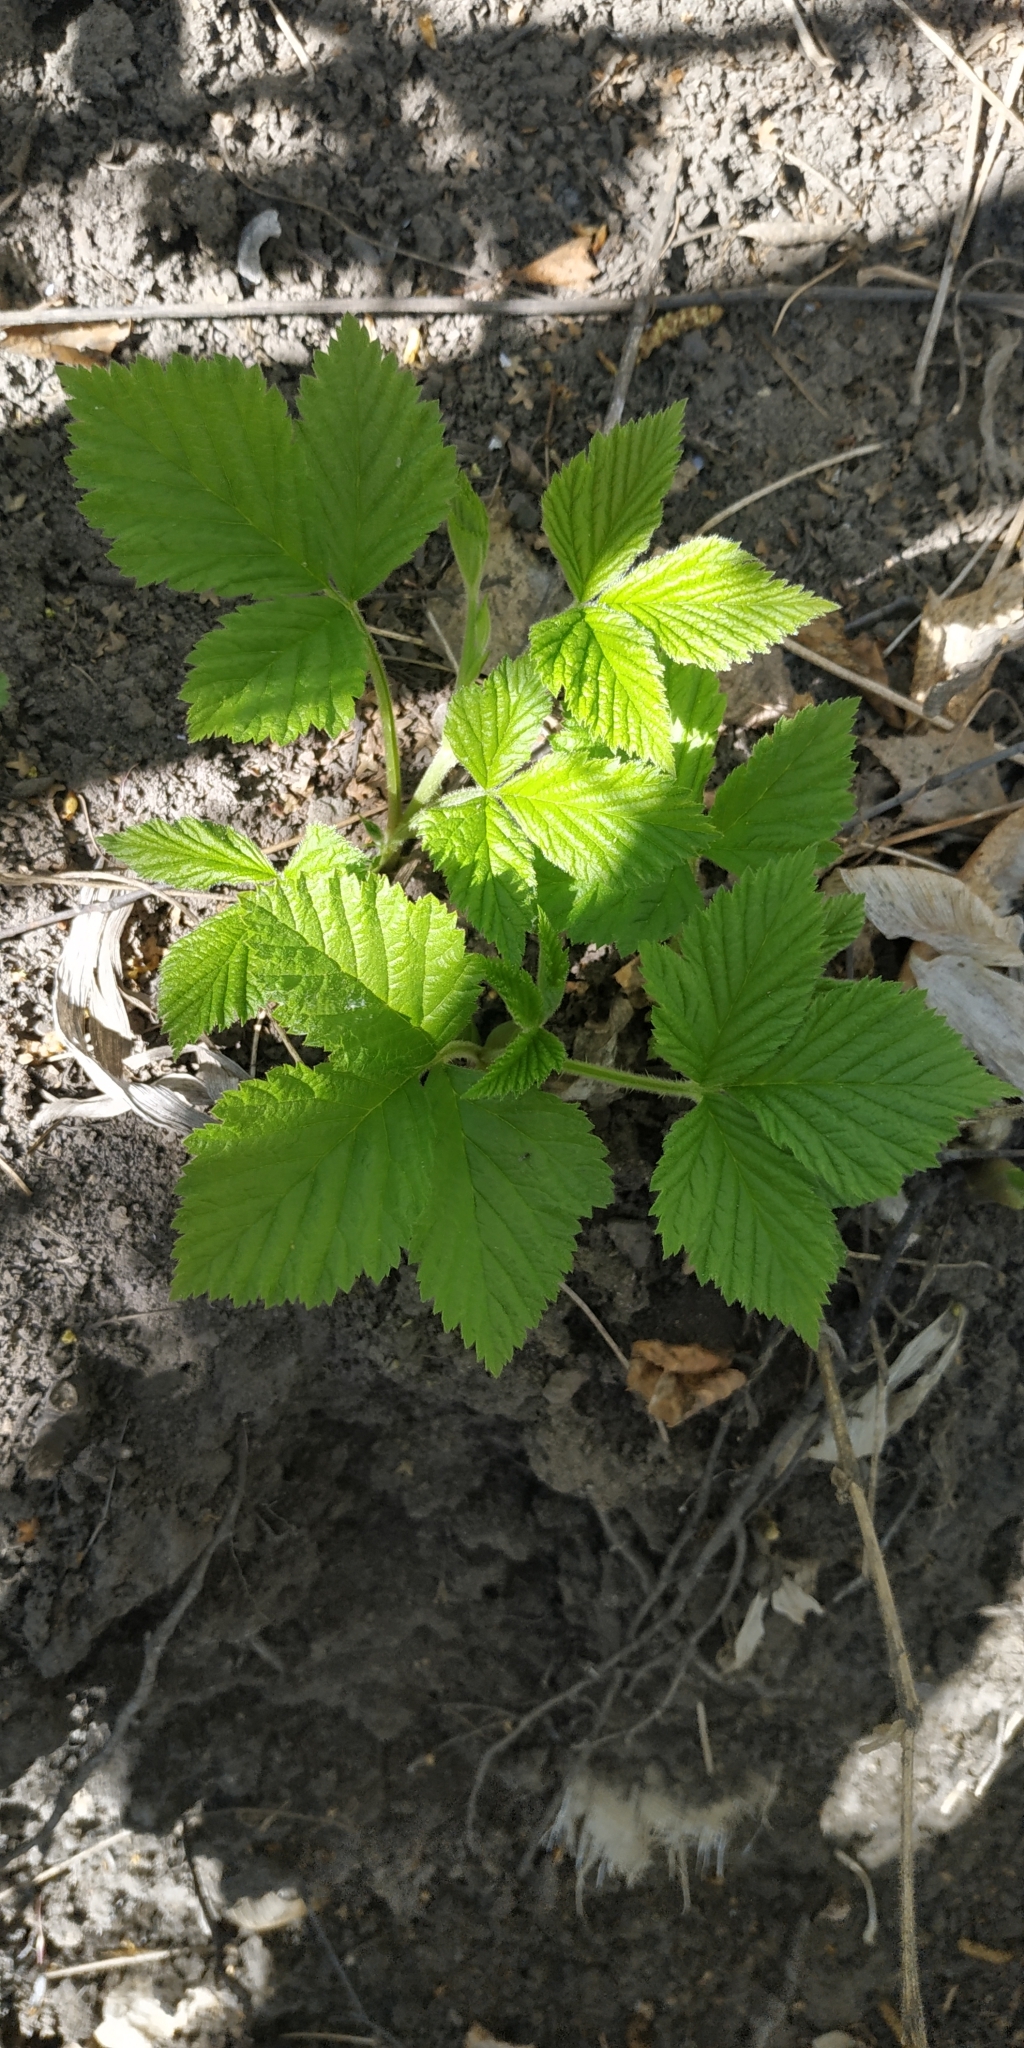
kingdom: Plantae
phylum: Tracheophyta
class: Magnoliopsida
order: Rosales
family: Rosaceae
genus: Rubus
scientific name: Rubus saxatilis
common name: Stone bramble
